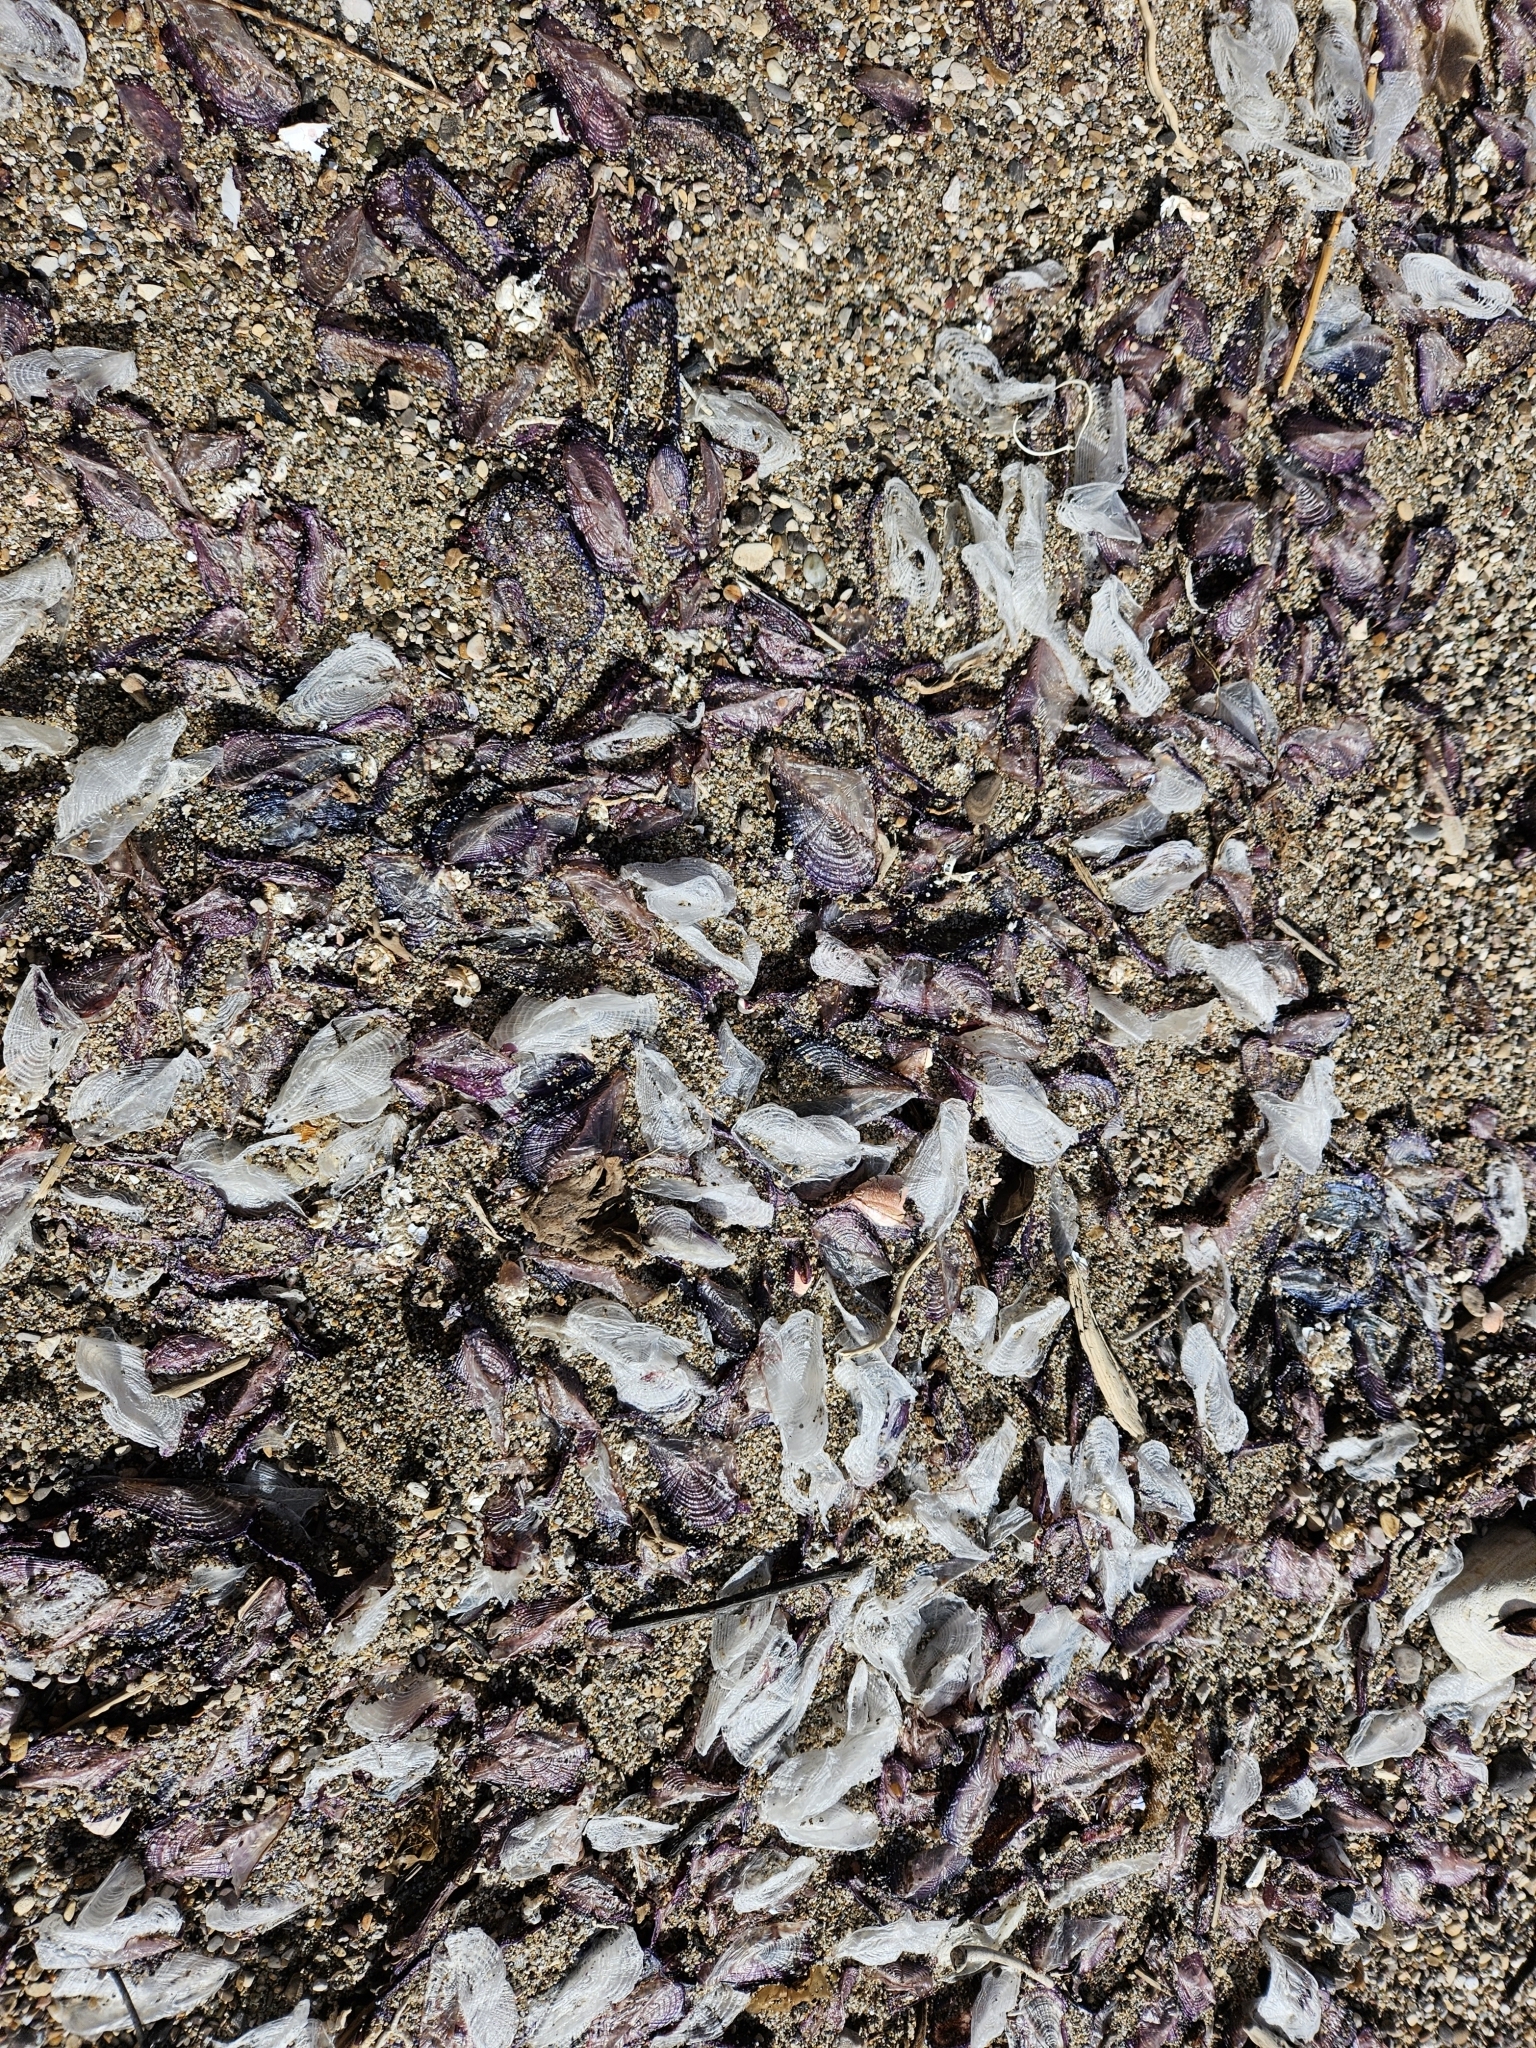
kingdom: Animalia
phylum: Cnidaria
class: Hydrozoa
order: Anthoathecata
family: Porpitidae
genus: Velella
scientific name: Velella velella
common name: By-the-wind-sailor
